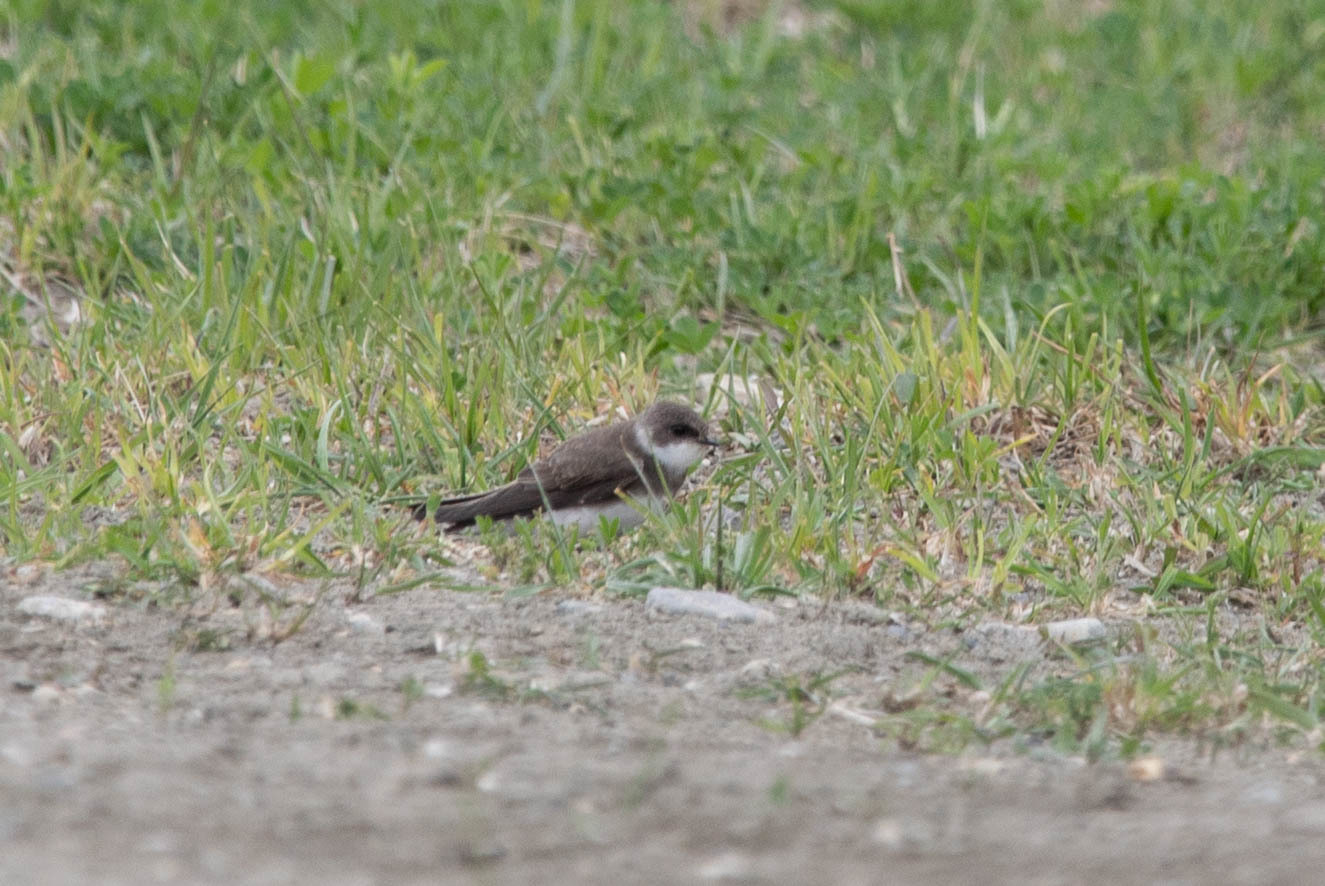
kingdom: Animalia
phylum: Chordata
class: Aves
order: Passeriformes
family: Hirundinidae
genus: Riparia
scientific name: Riparia riparia
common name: Sand martin
